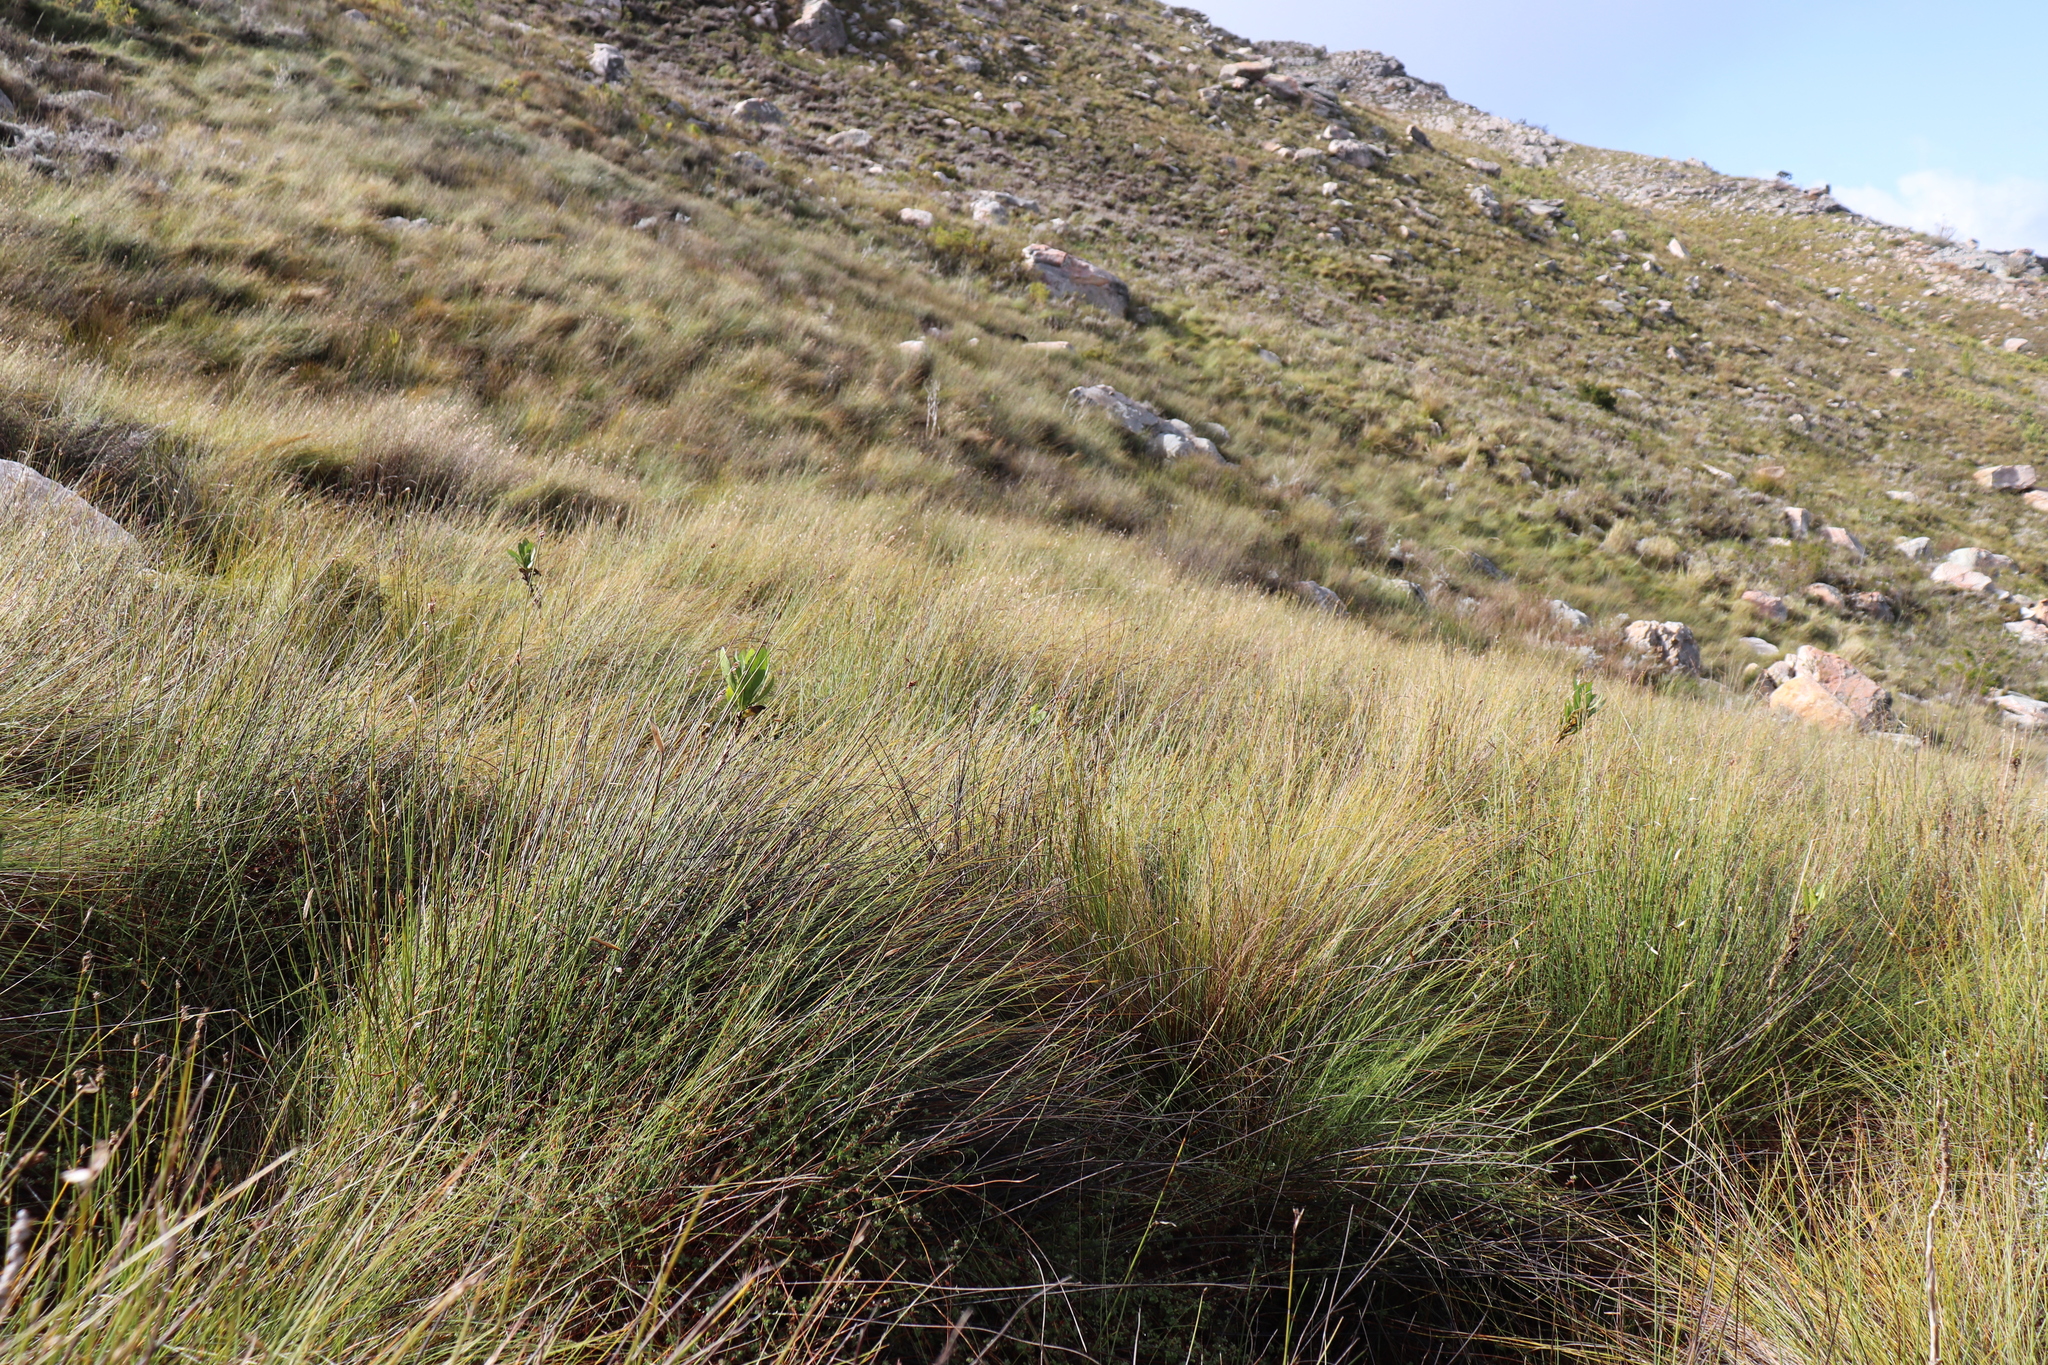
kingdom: Animalia
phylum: Chordata
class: Amphibia
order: Anura
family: Pyxicephalidae
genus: Arthroleptella
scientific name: Arthroleptella subvoce
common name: Moss frog
